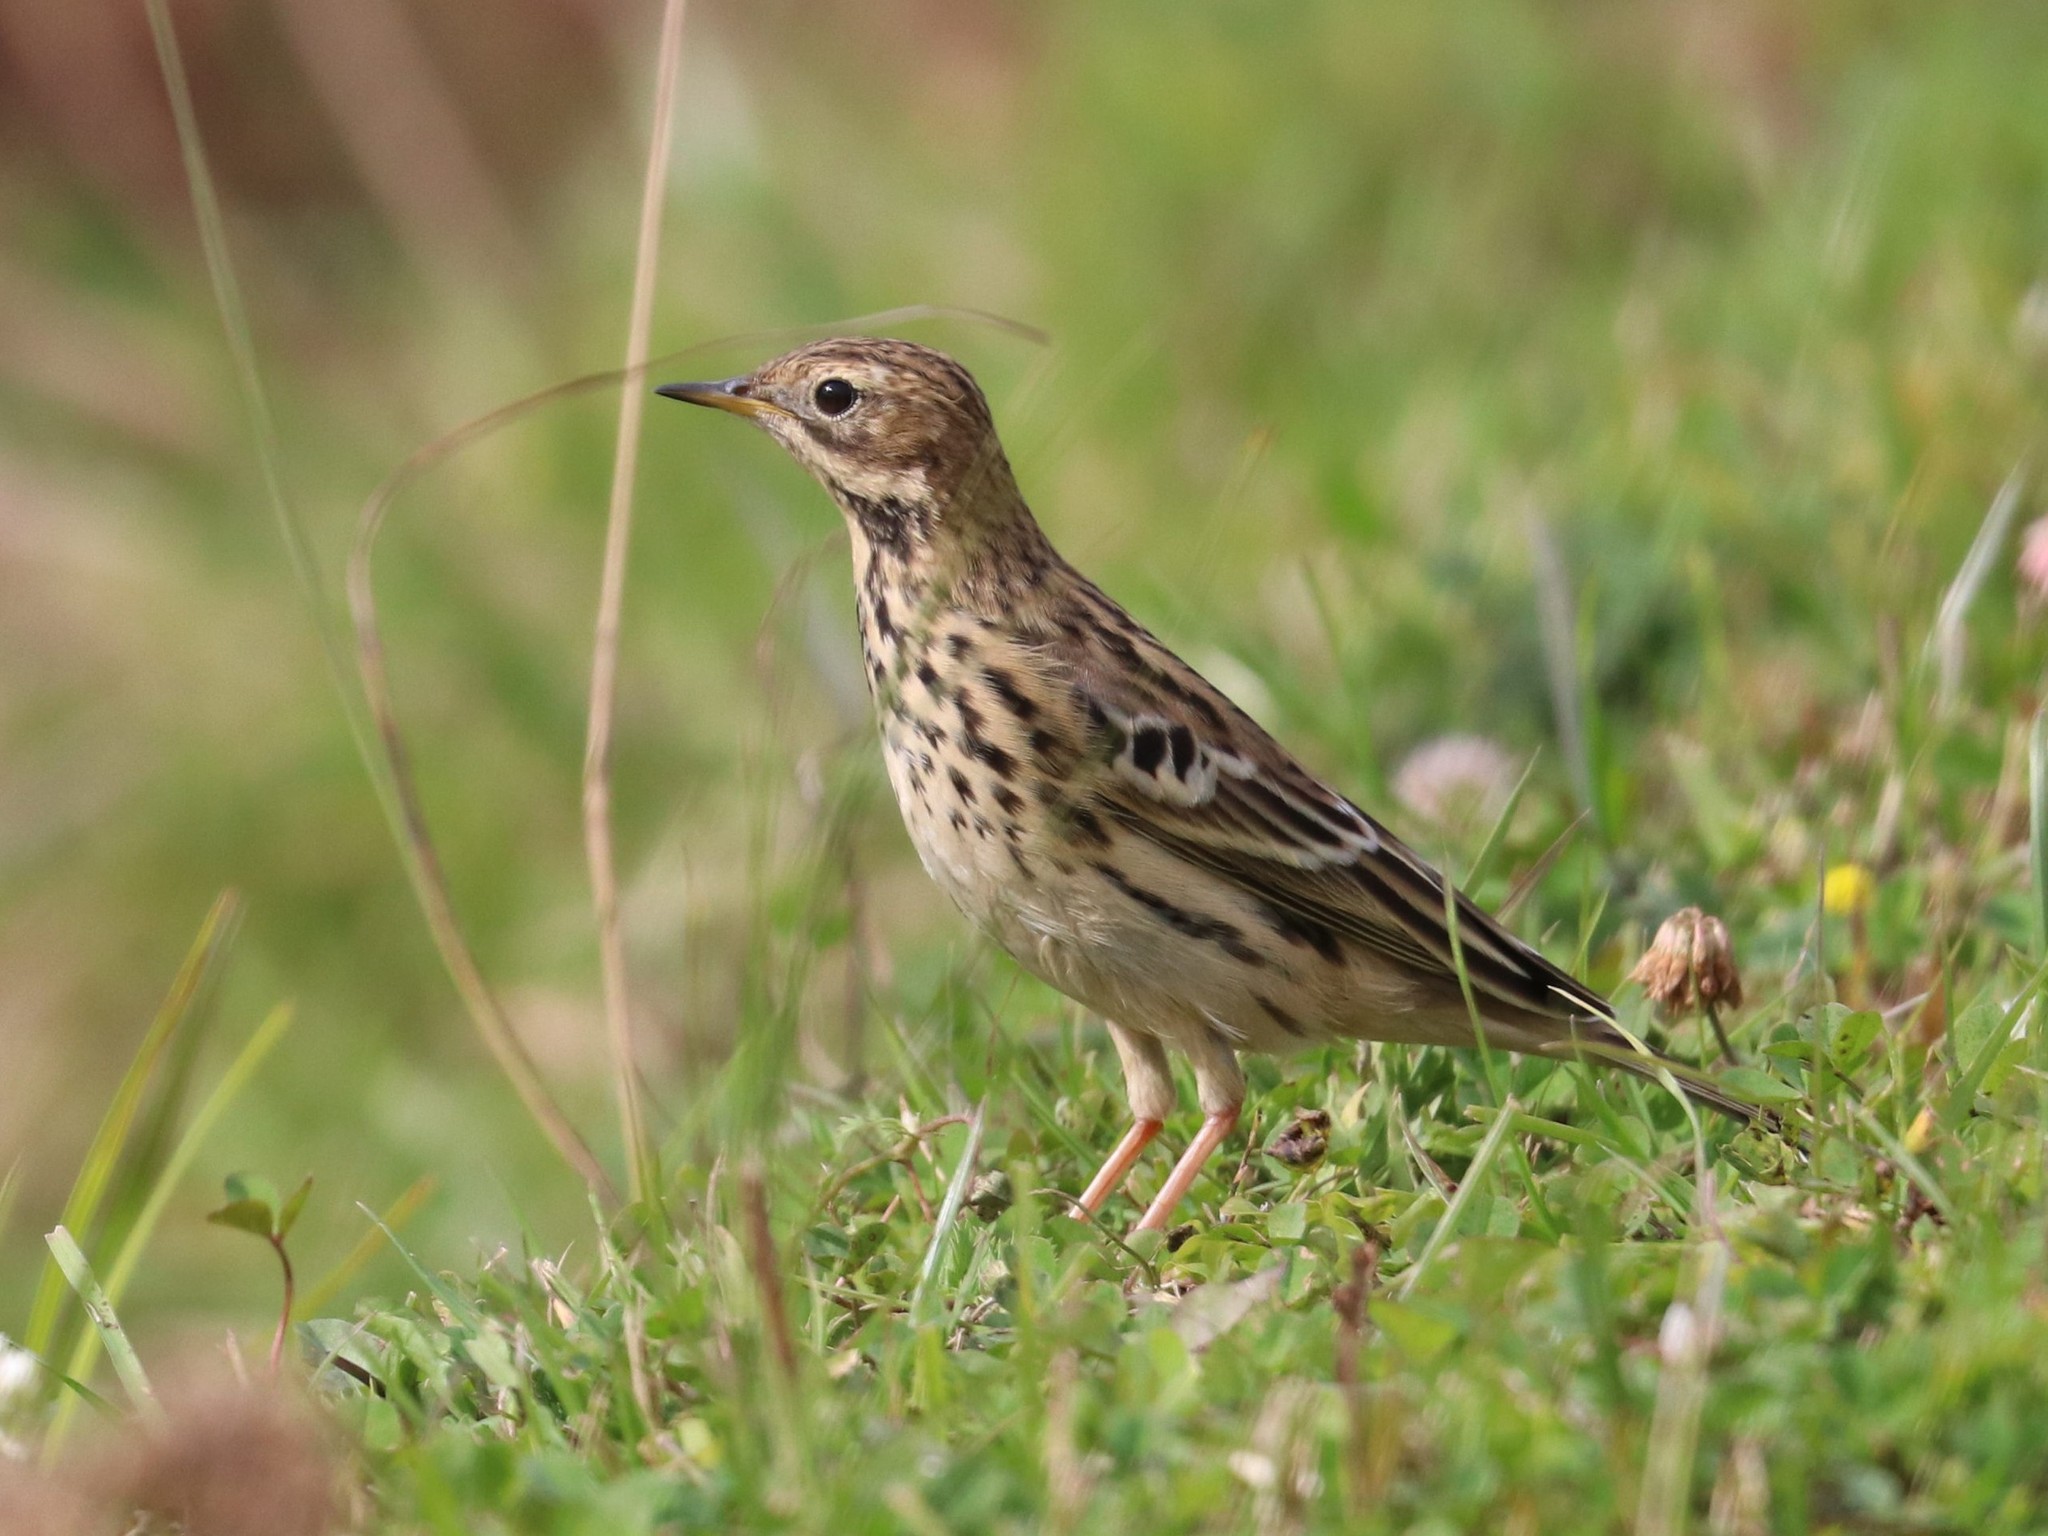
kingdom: Animalia
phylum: Chordata
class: Aves
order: Passeriformes
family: Motacillidae
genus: Anthus
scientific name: Anthus cervinus
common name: Red-throated pipit
